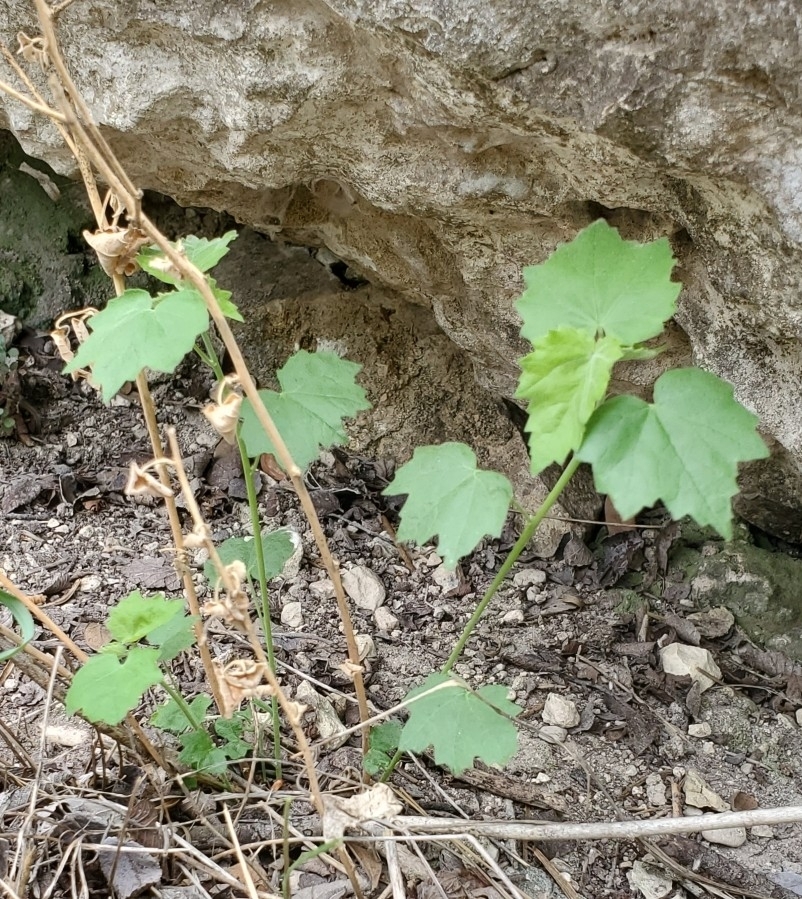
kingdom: Plantae
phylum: Tracheophyta
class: Magnoliopsida
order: Vitales
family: Vitaceae
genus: Vitis
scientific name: Vitis monticola
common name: Mountain grape
